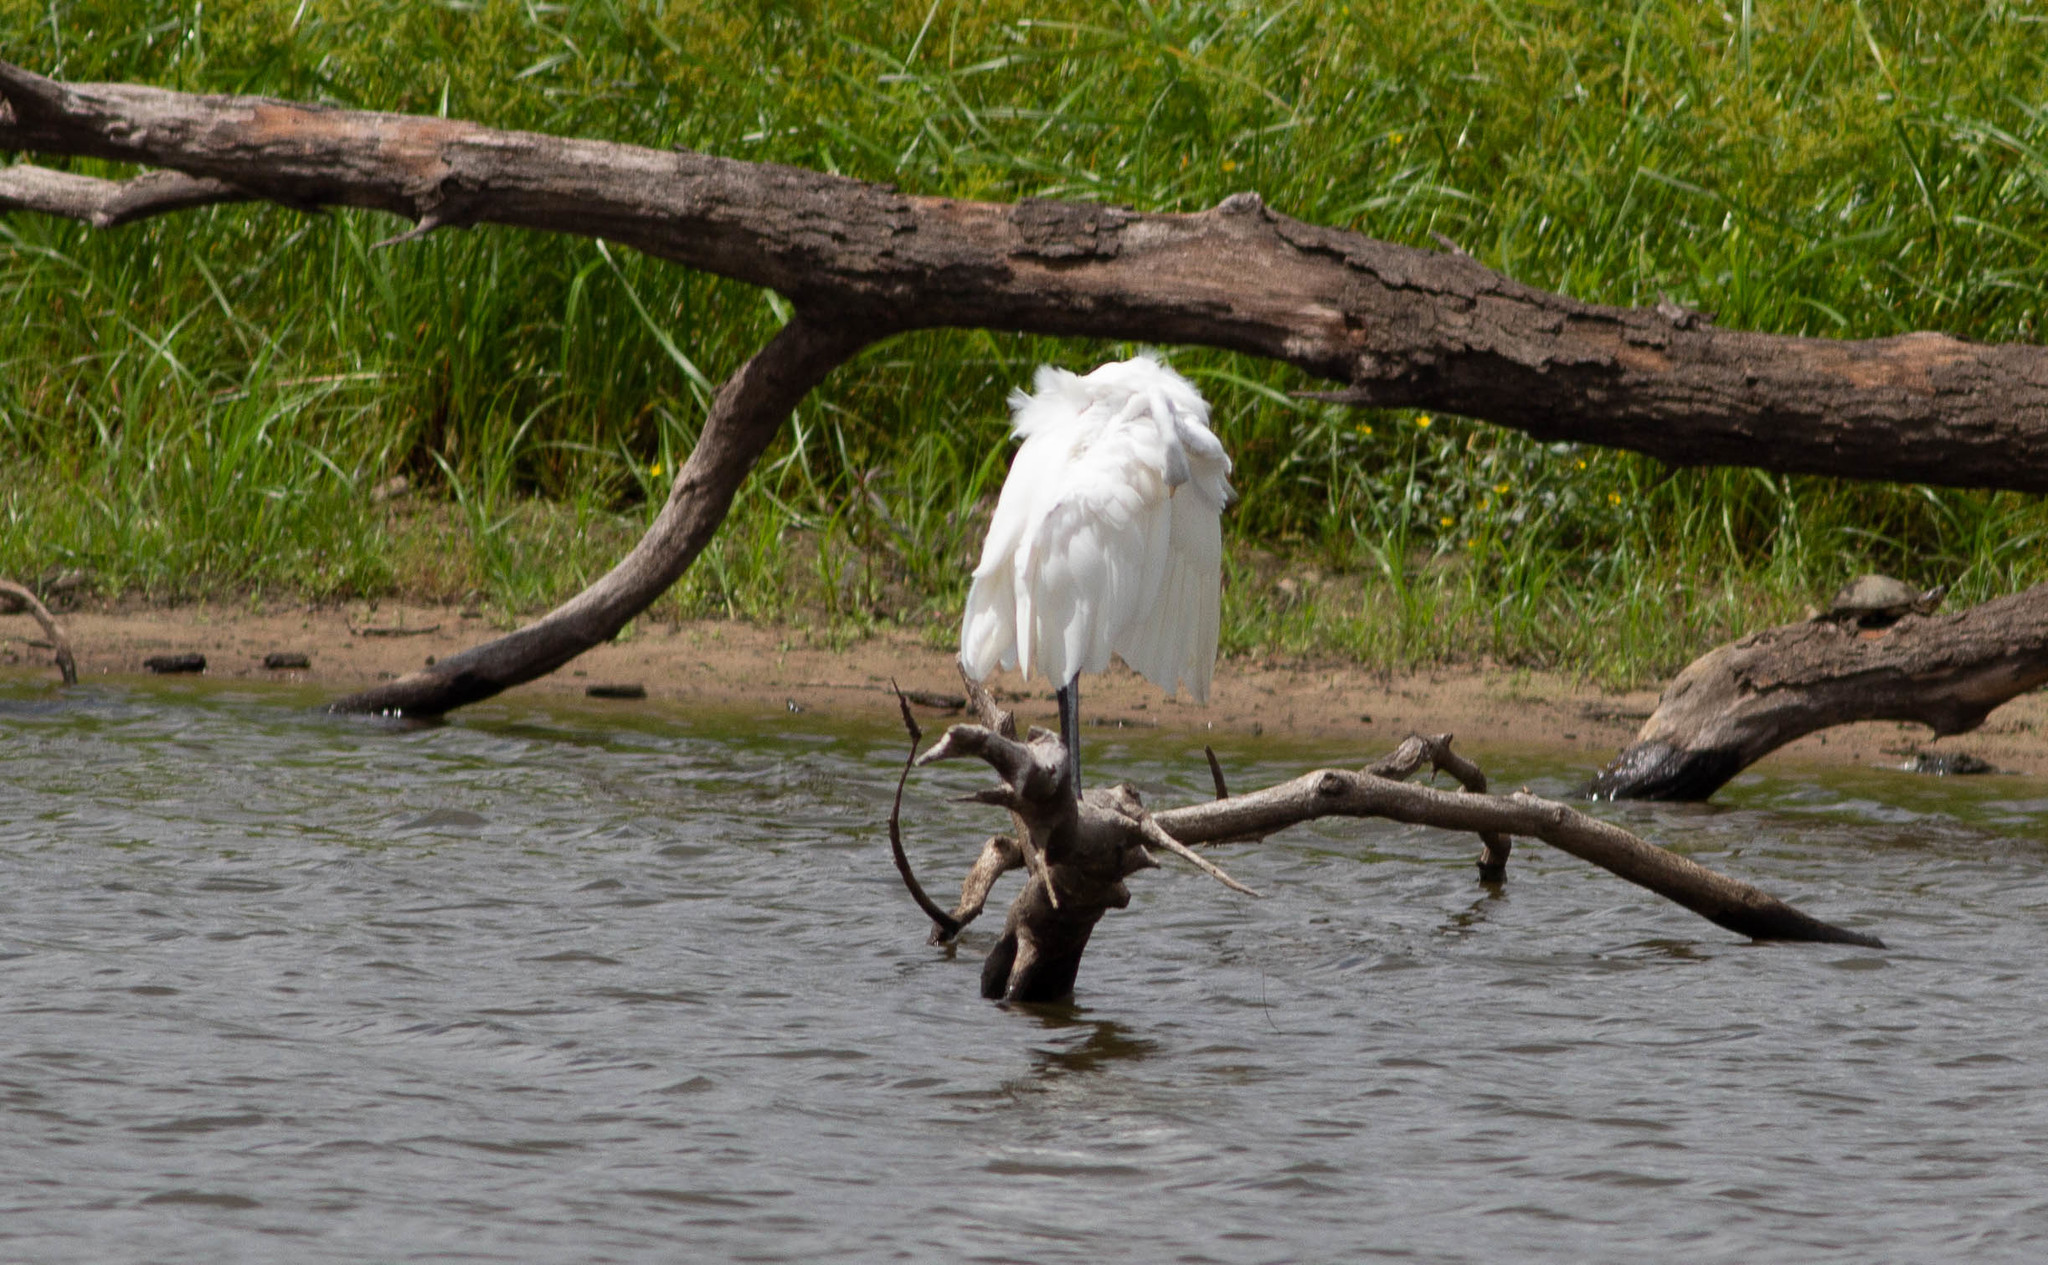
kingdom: Animalia
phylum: Chordata
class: Aves
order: Pelecaniformes
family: Ardeidae
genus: Ardea
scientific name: Ardea alba
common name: Great egret
